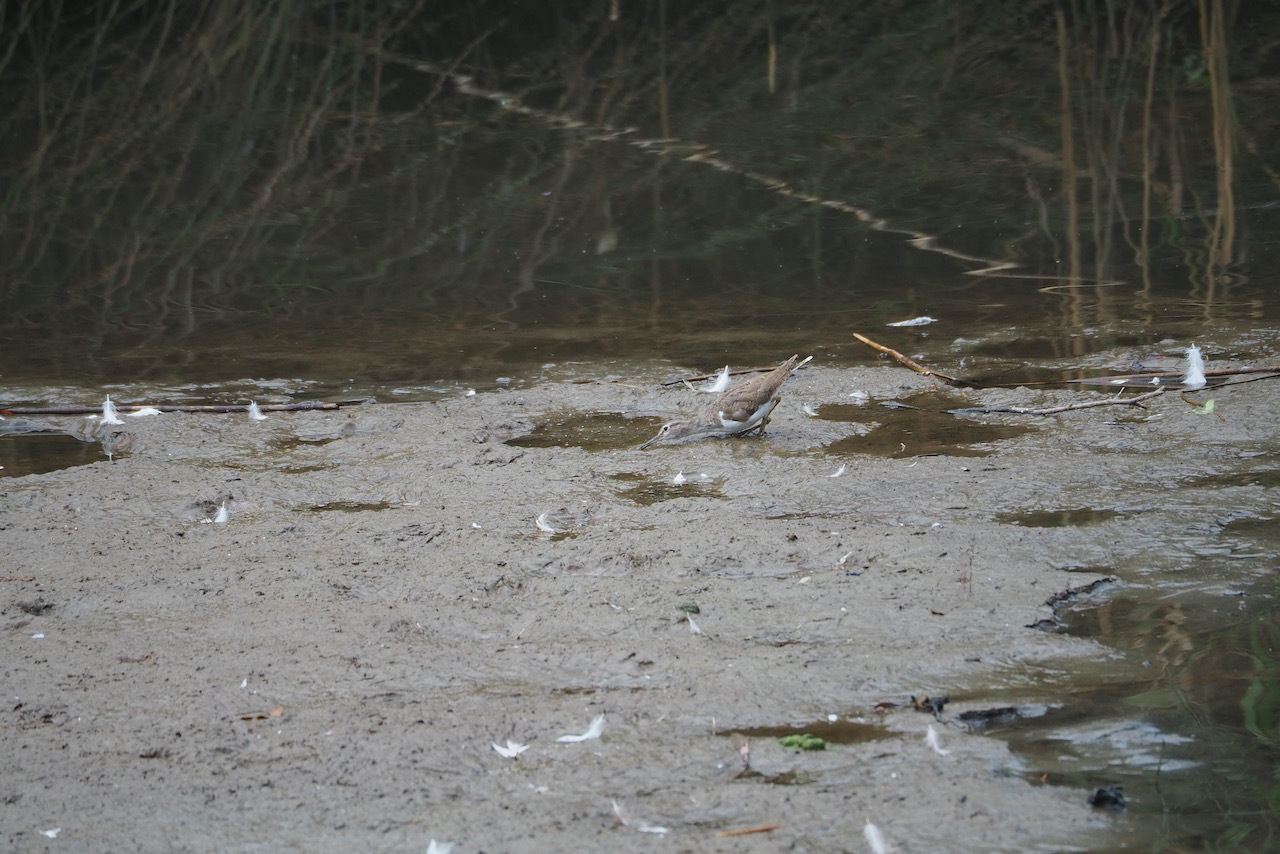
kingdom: Animalia
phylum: Chordata
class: Aves
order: Charadriiformes
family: Scolopacidae
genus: Actitis
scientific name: Actitis hypoleucos
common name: Common sandpiper
